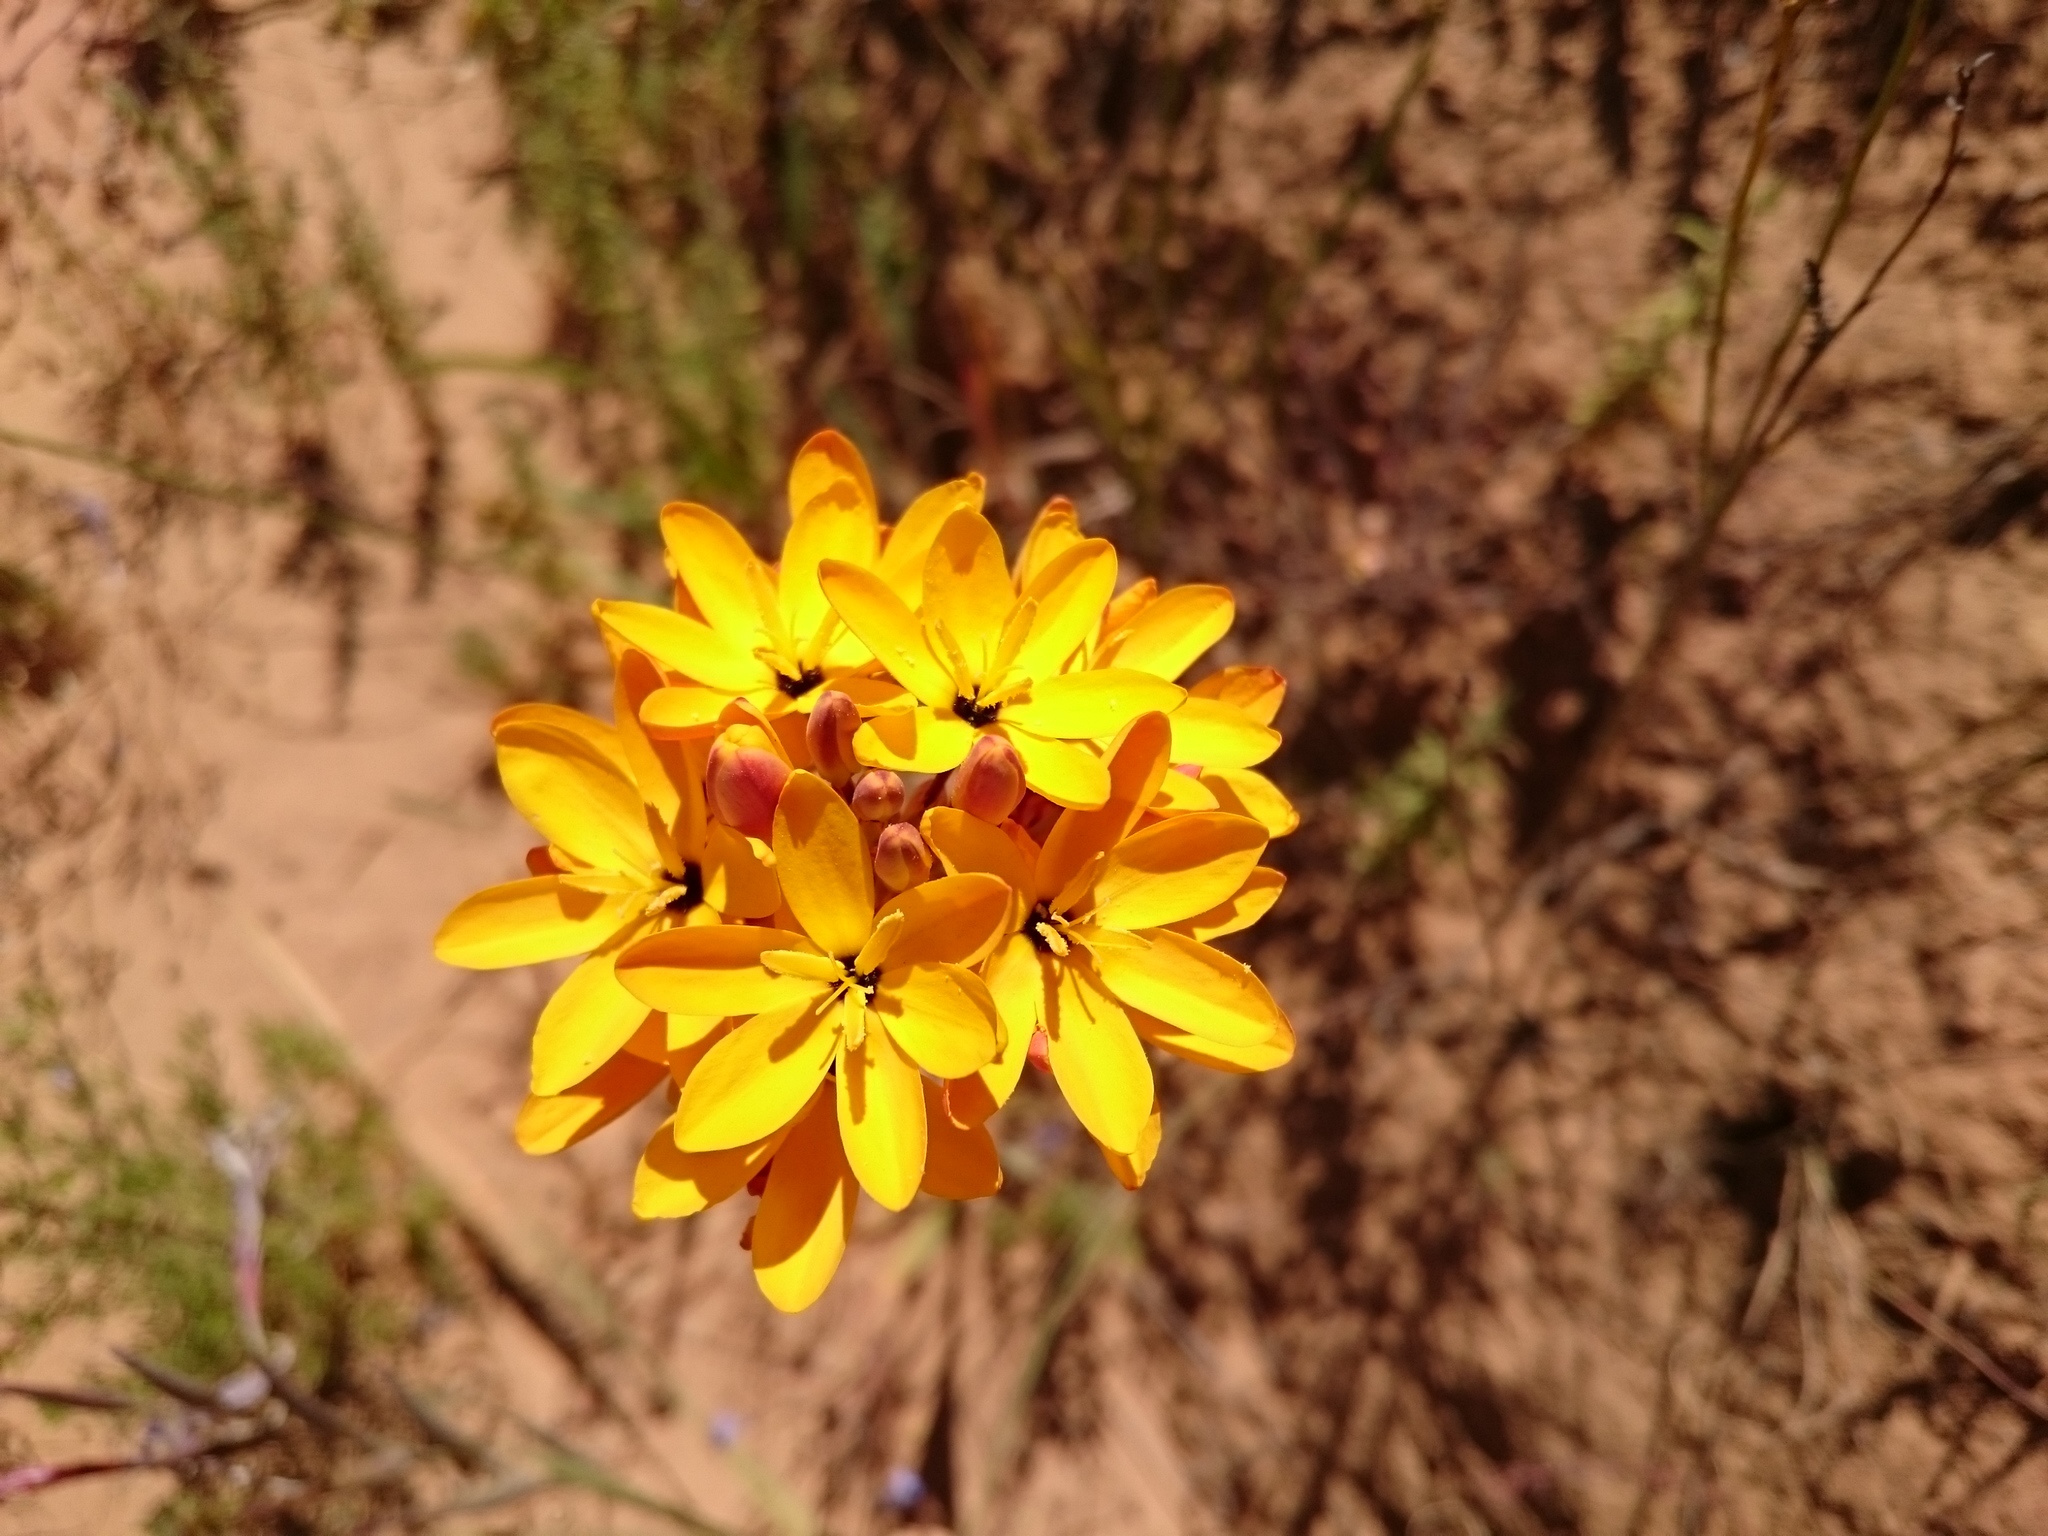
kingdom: Plantae
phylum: Tracheophyta
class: Liliopsida
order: Asparagales
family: Iridaceae
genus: Ixia
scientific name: Ixia dubia
